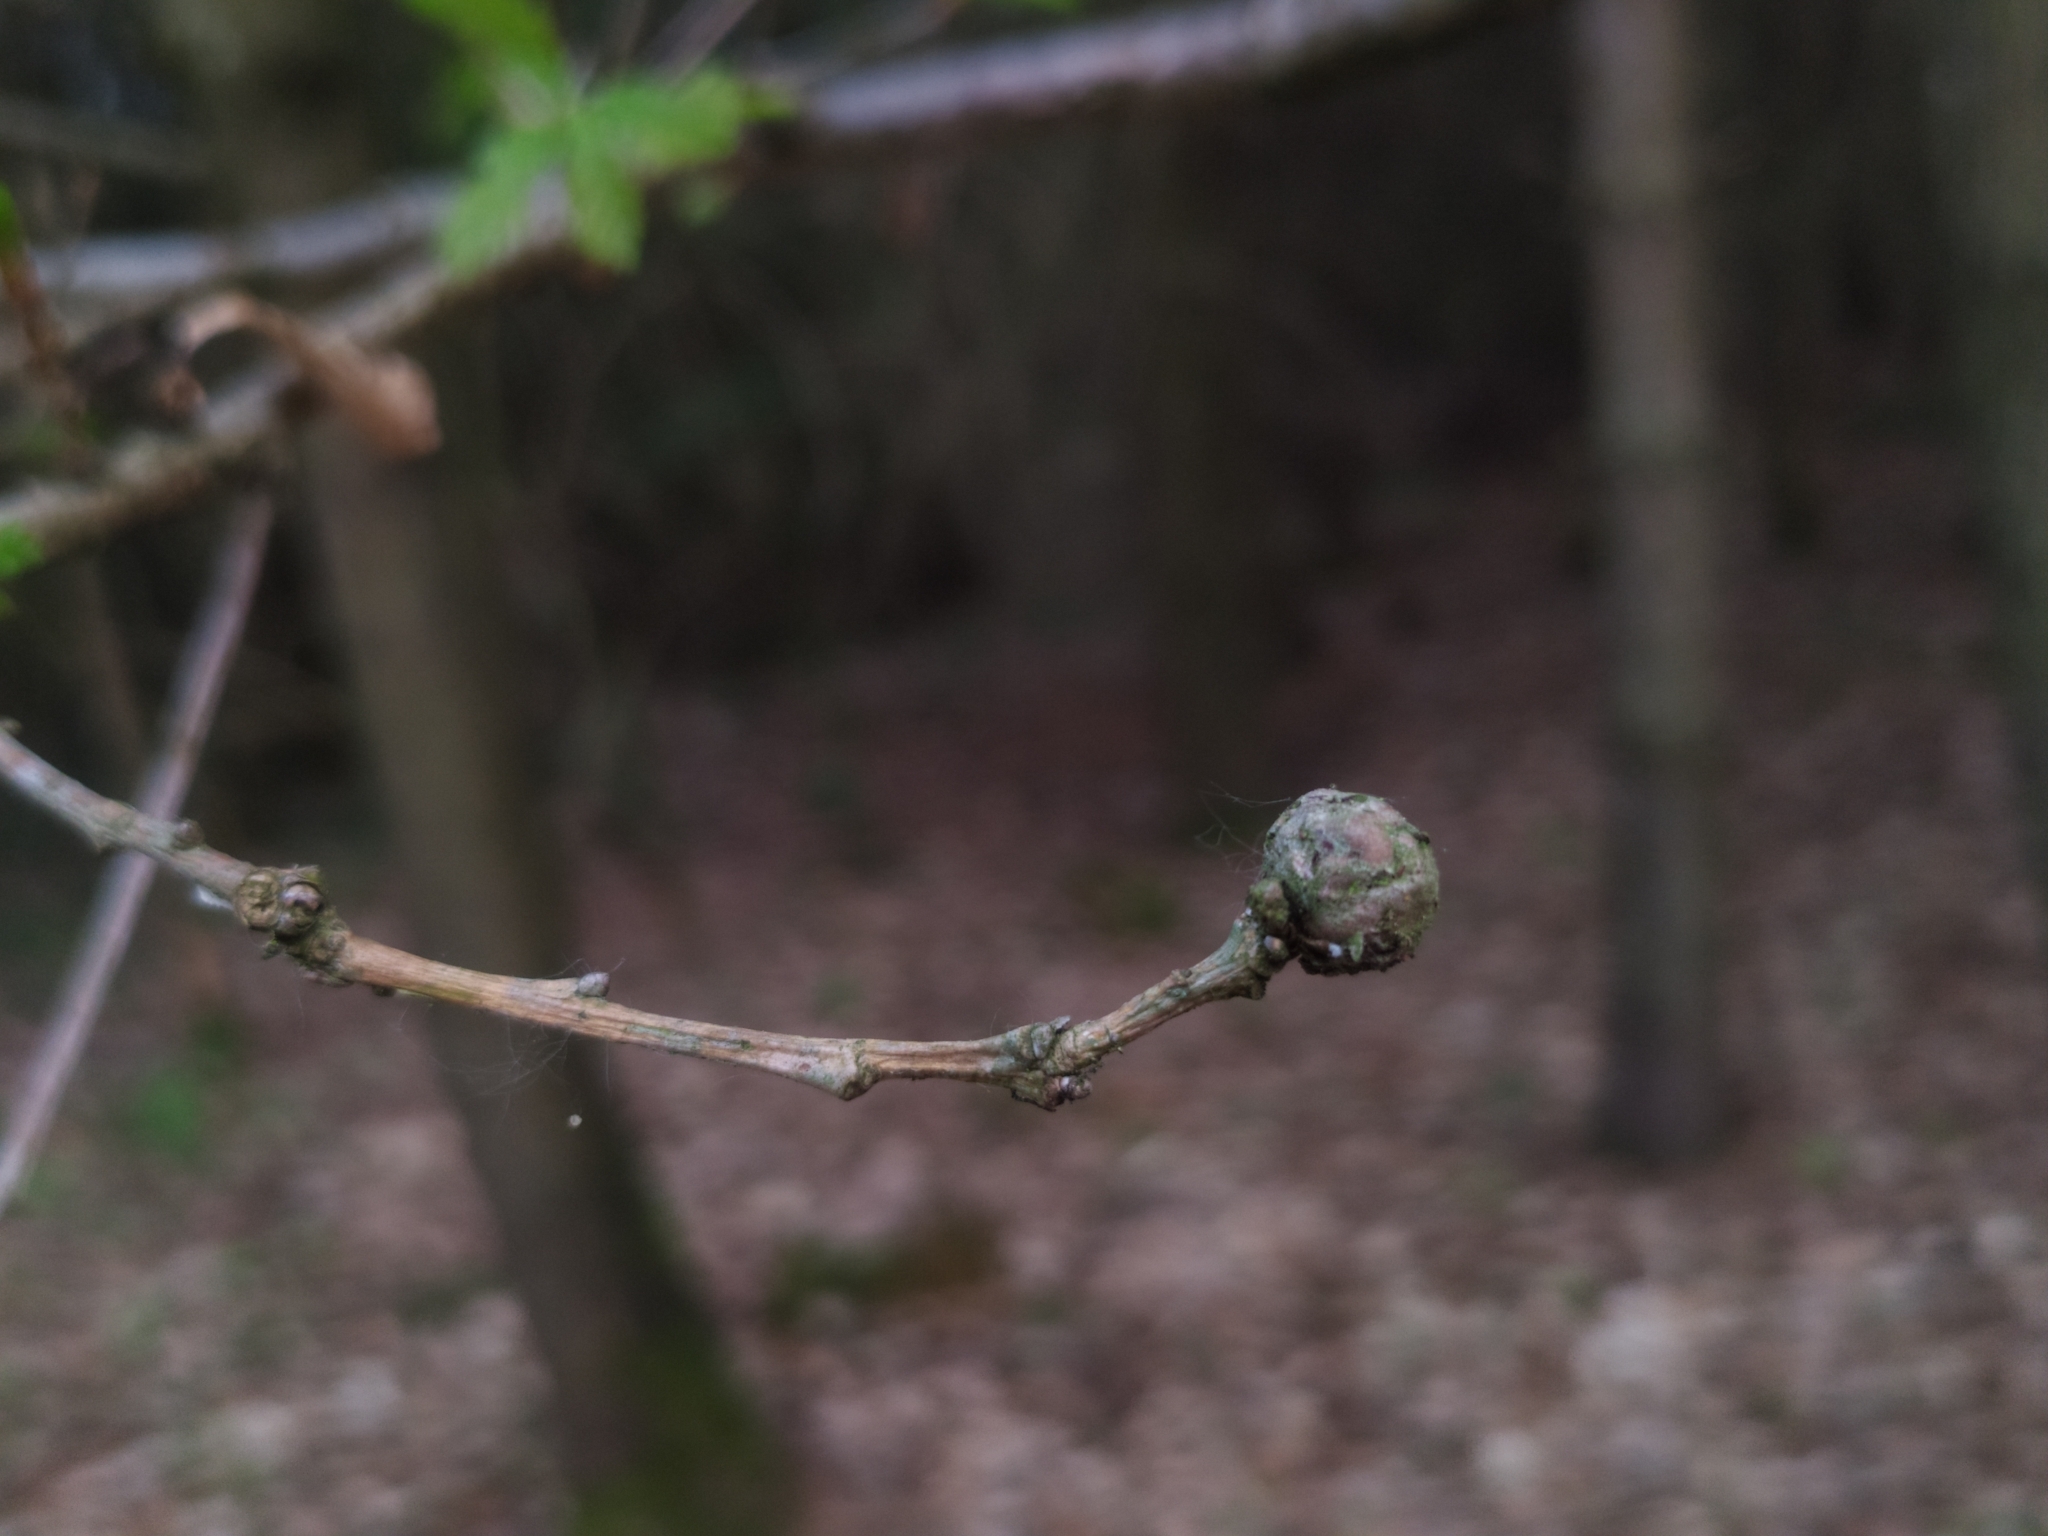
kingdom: Animalia
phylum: Arthropoda
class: Insecta
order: Hymenoptera
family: Cynipidae
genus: Andricus
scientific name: Andricus lignicolus
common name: Cola-nut gall
